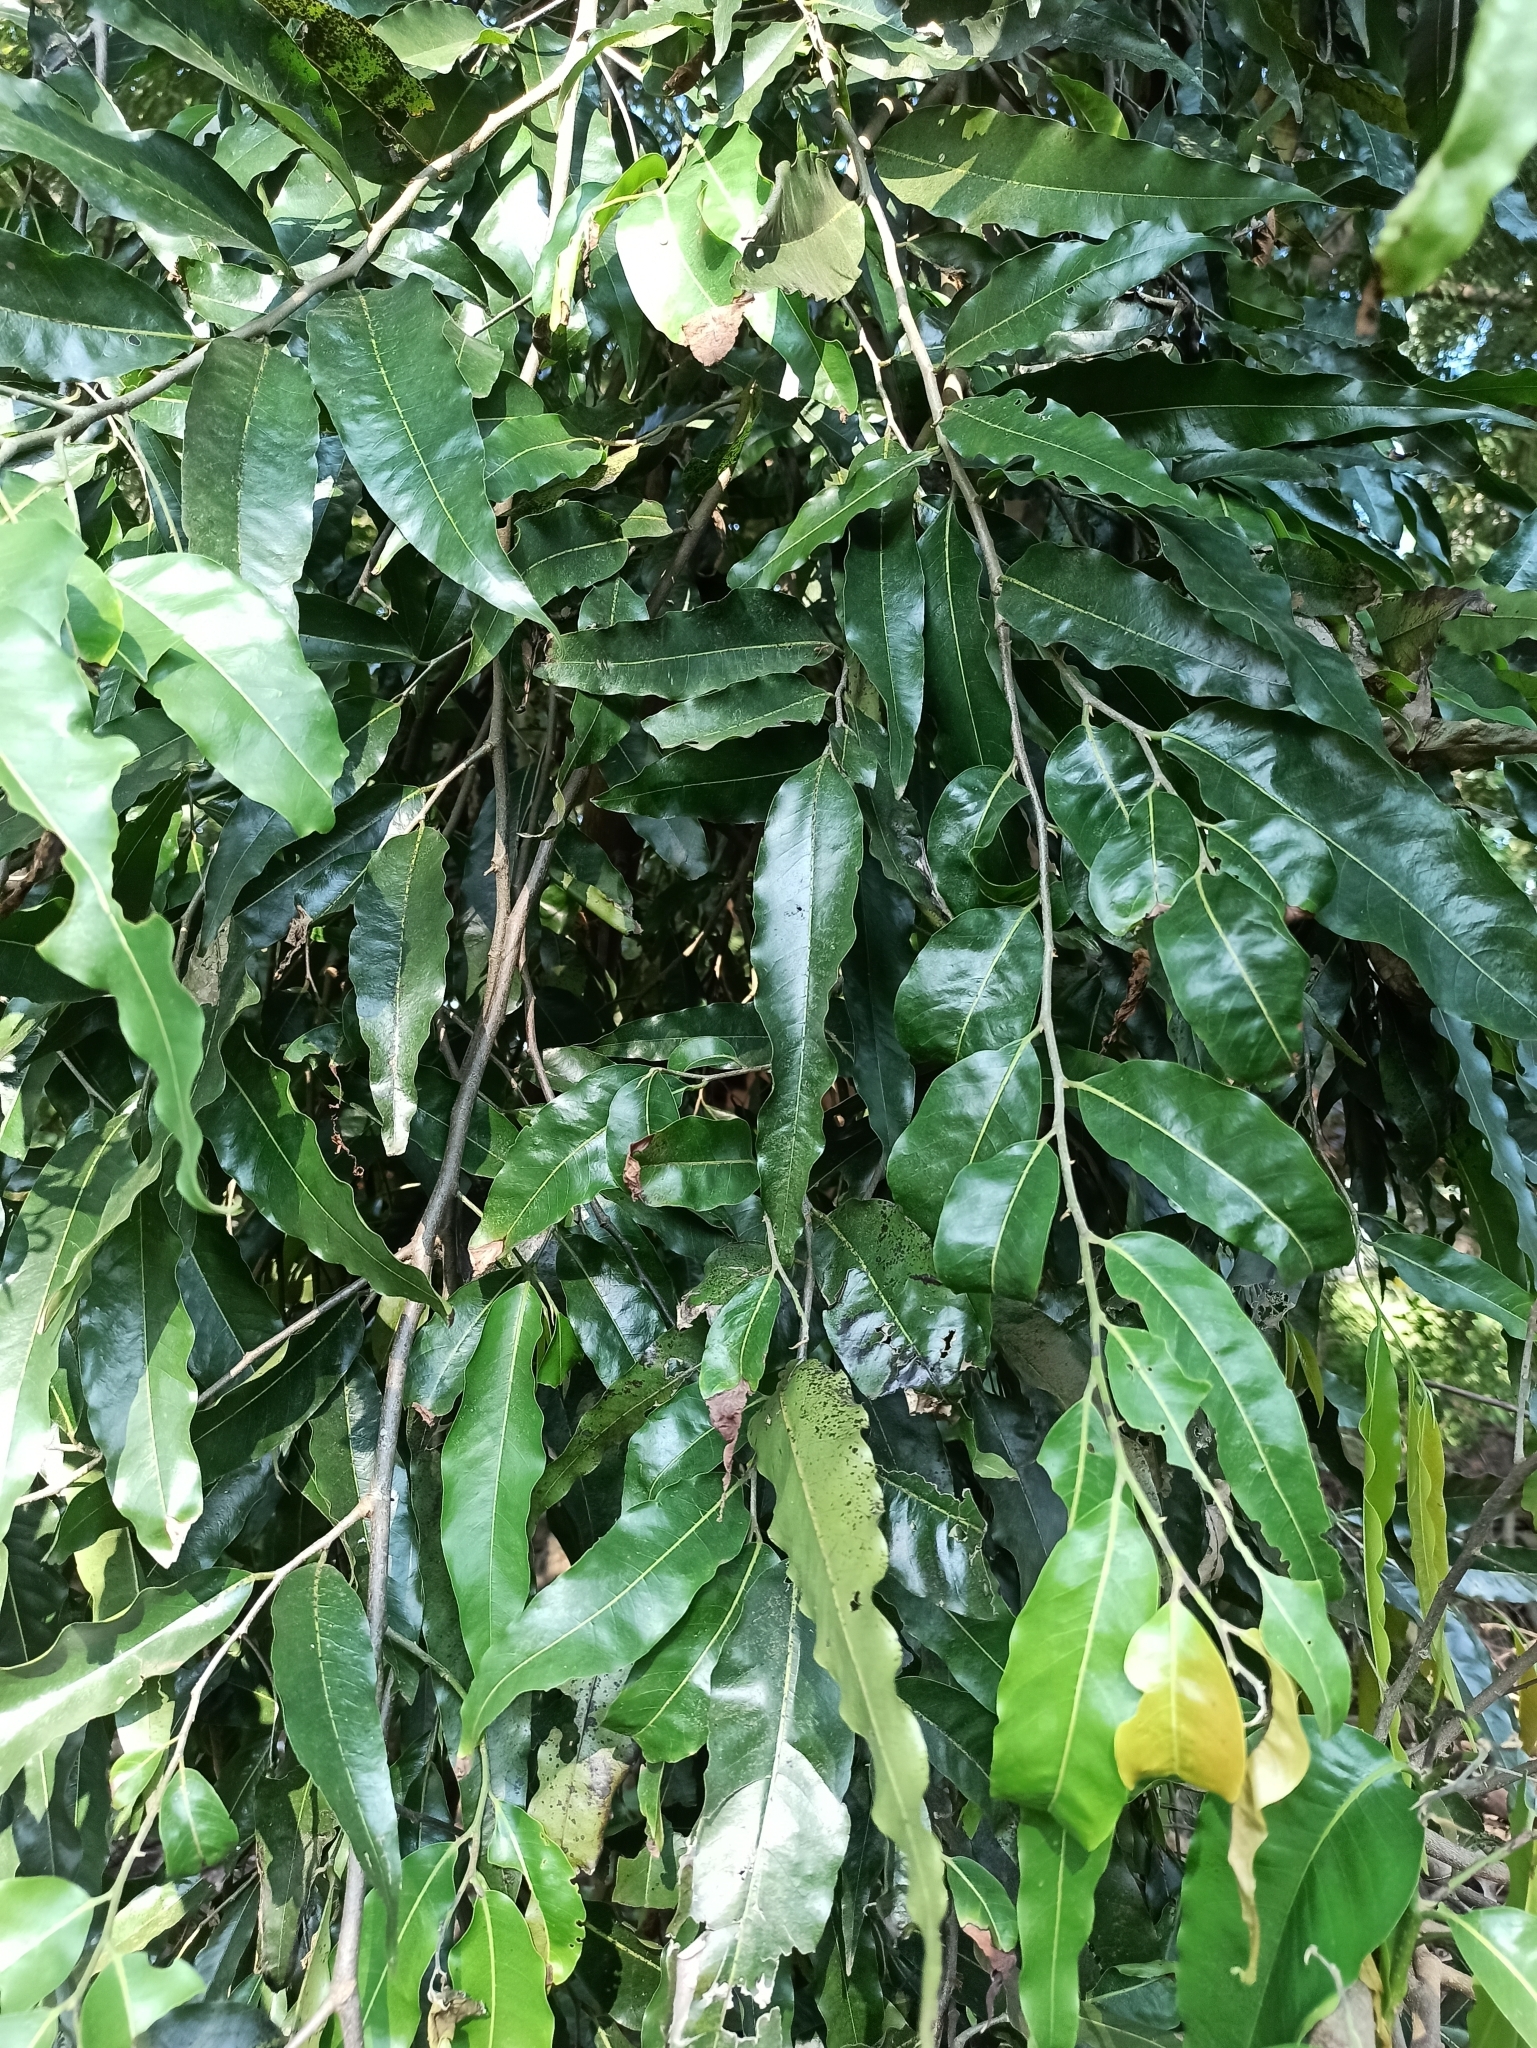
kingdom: Plantae
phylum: Tracheophyta
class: Magnoliopsida
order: Magnoliales
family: Annonaceae
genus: Polyalthia
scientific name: Polyalthia longifolia
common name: Cemetery-tree
